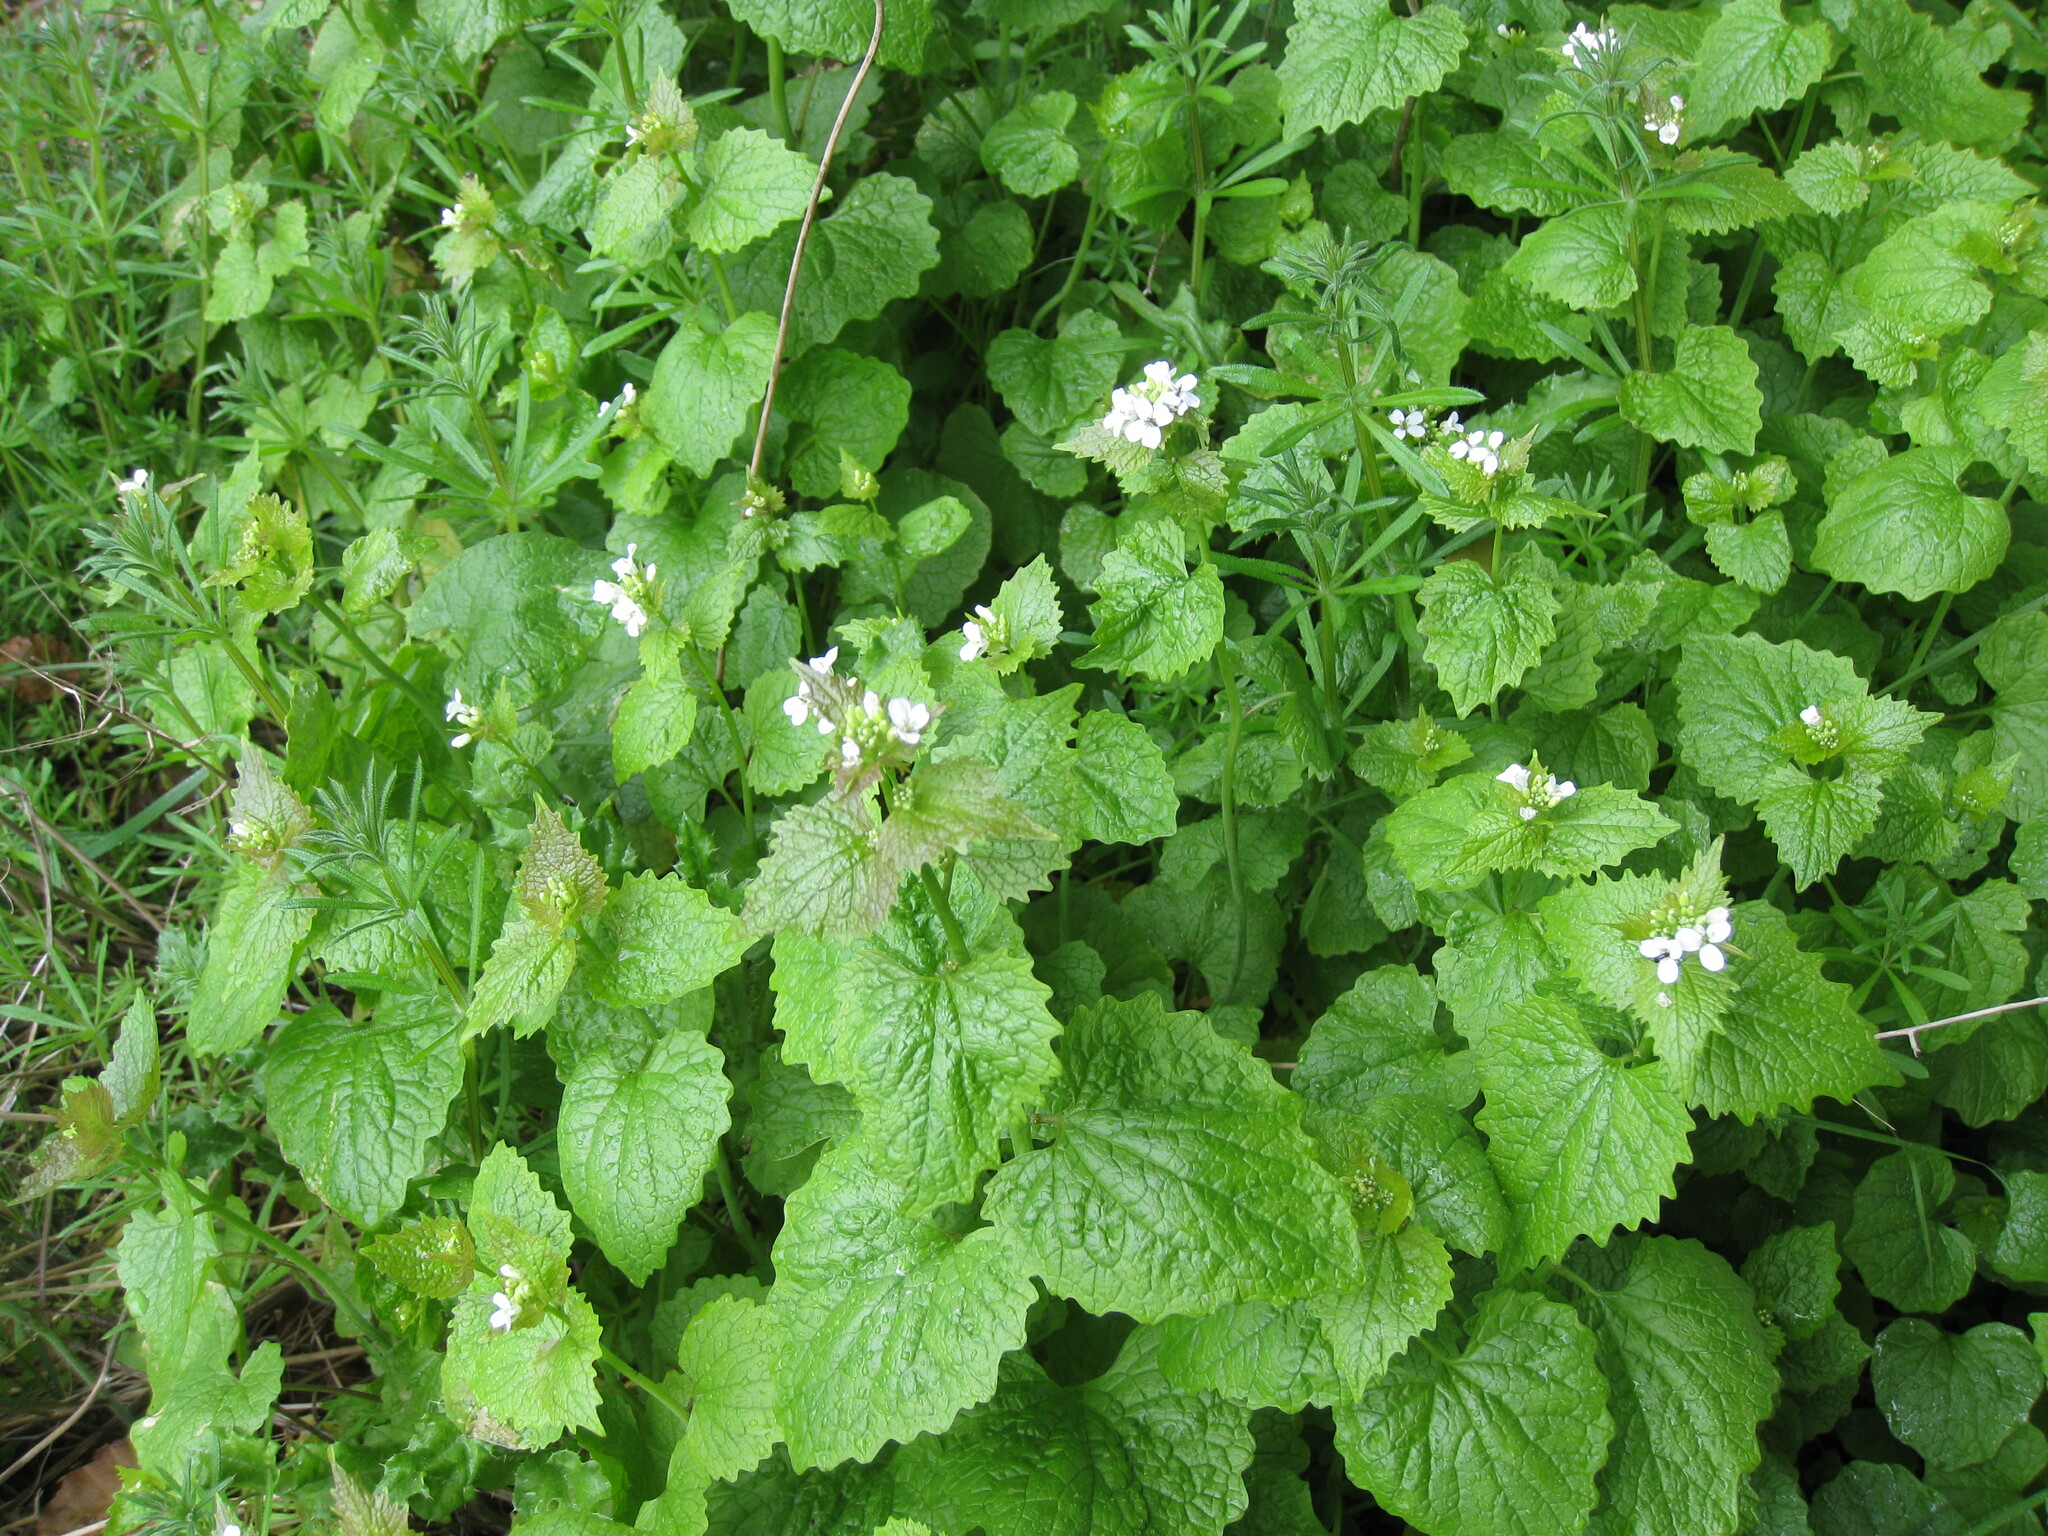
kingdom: Plantae
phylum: Tracheophyta
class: Magnoliopsida
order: Brassicales
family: Brassicaceae
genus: Alliaria
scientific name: Alliaria petiolata
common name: Garlic mustard
